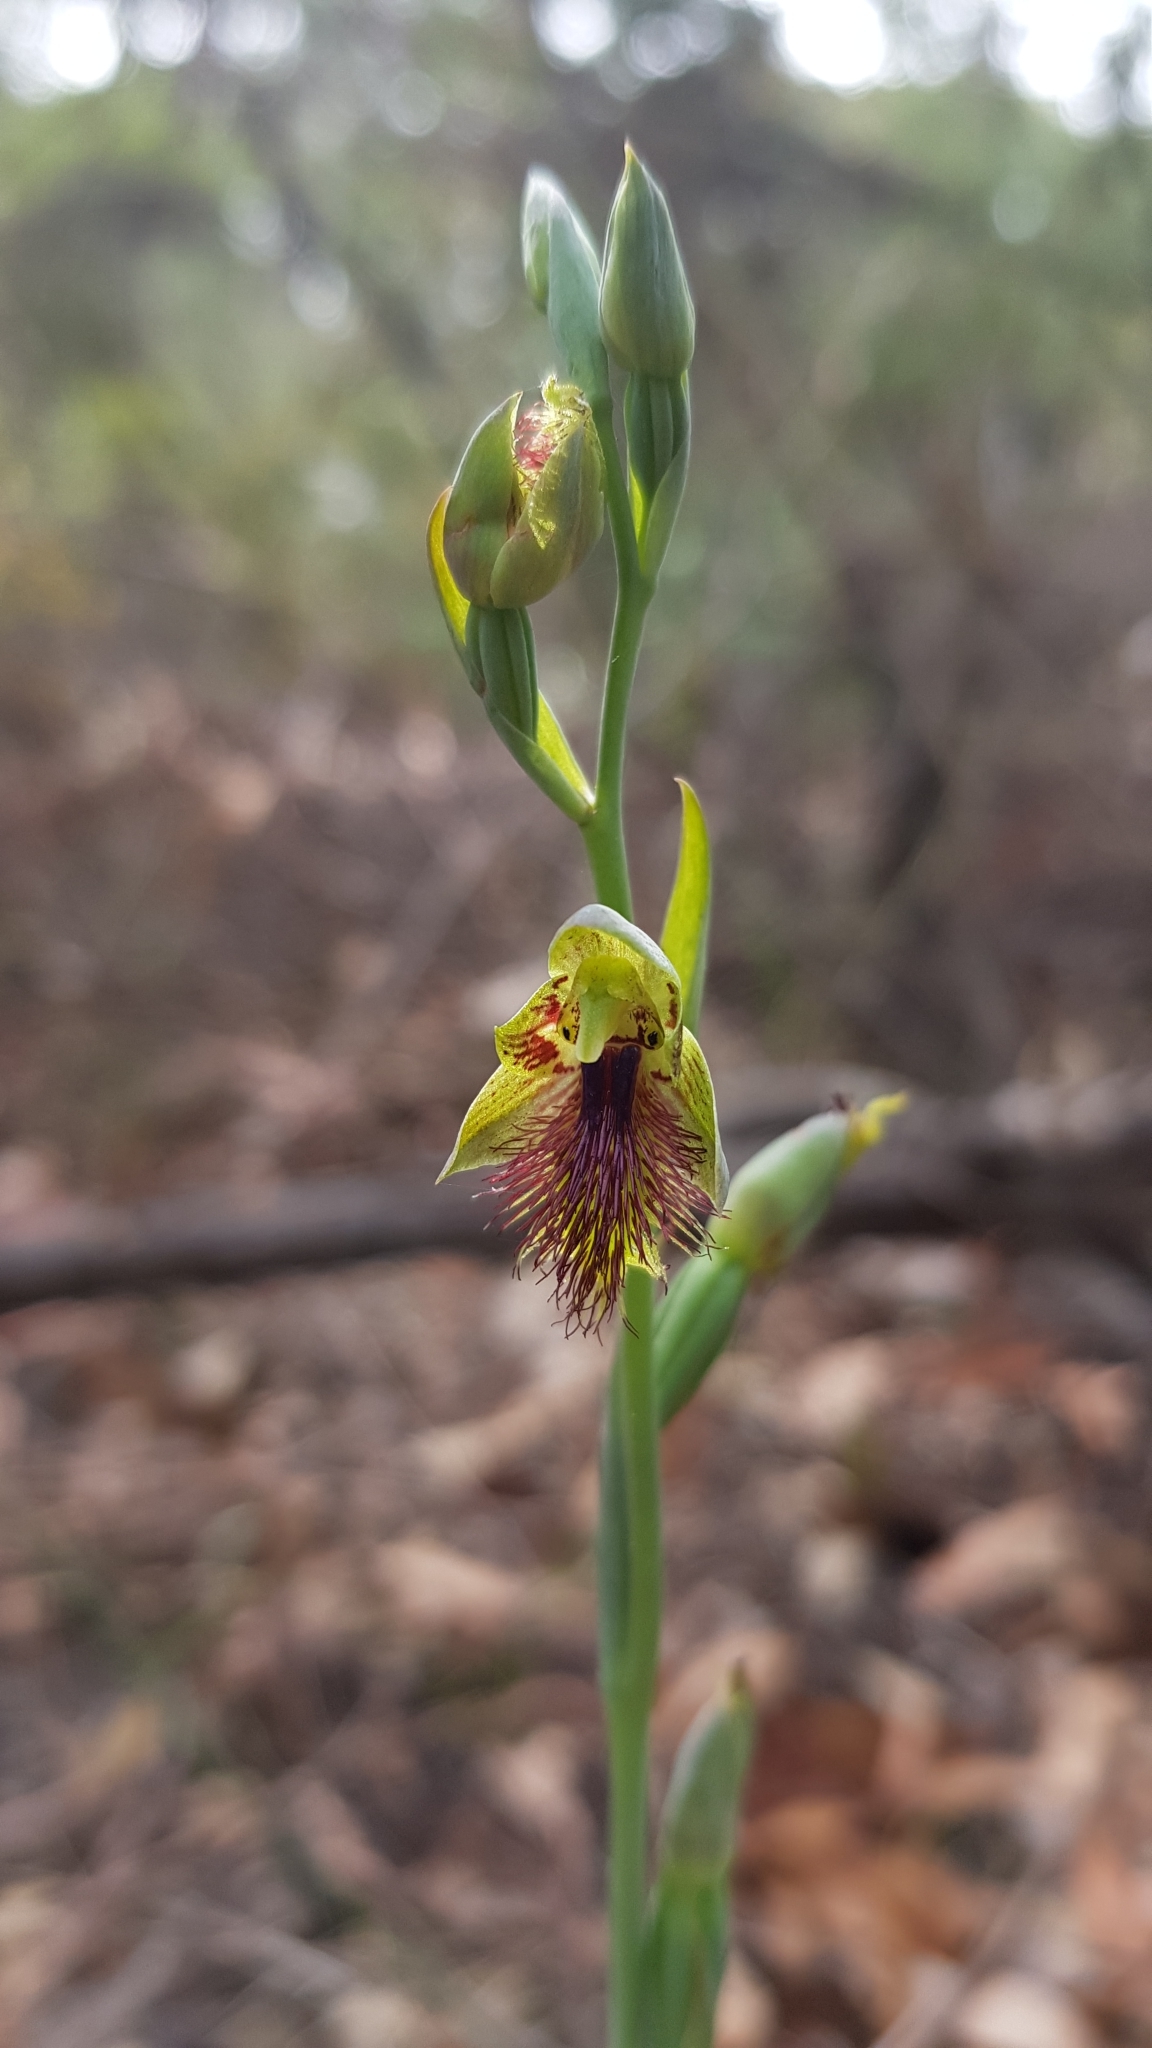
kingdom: Plantae
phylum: Tracheophyta
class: Liliopsida
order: Asparagales
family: Orchidaceae
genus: Calochilus
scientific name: Calochilus campestris
